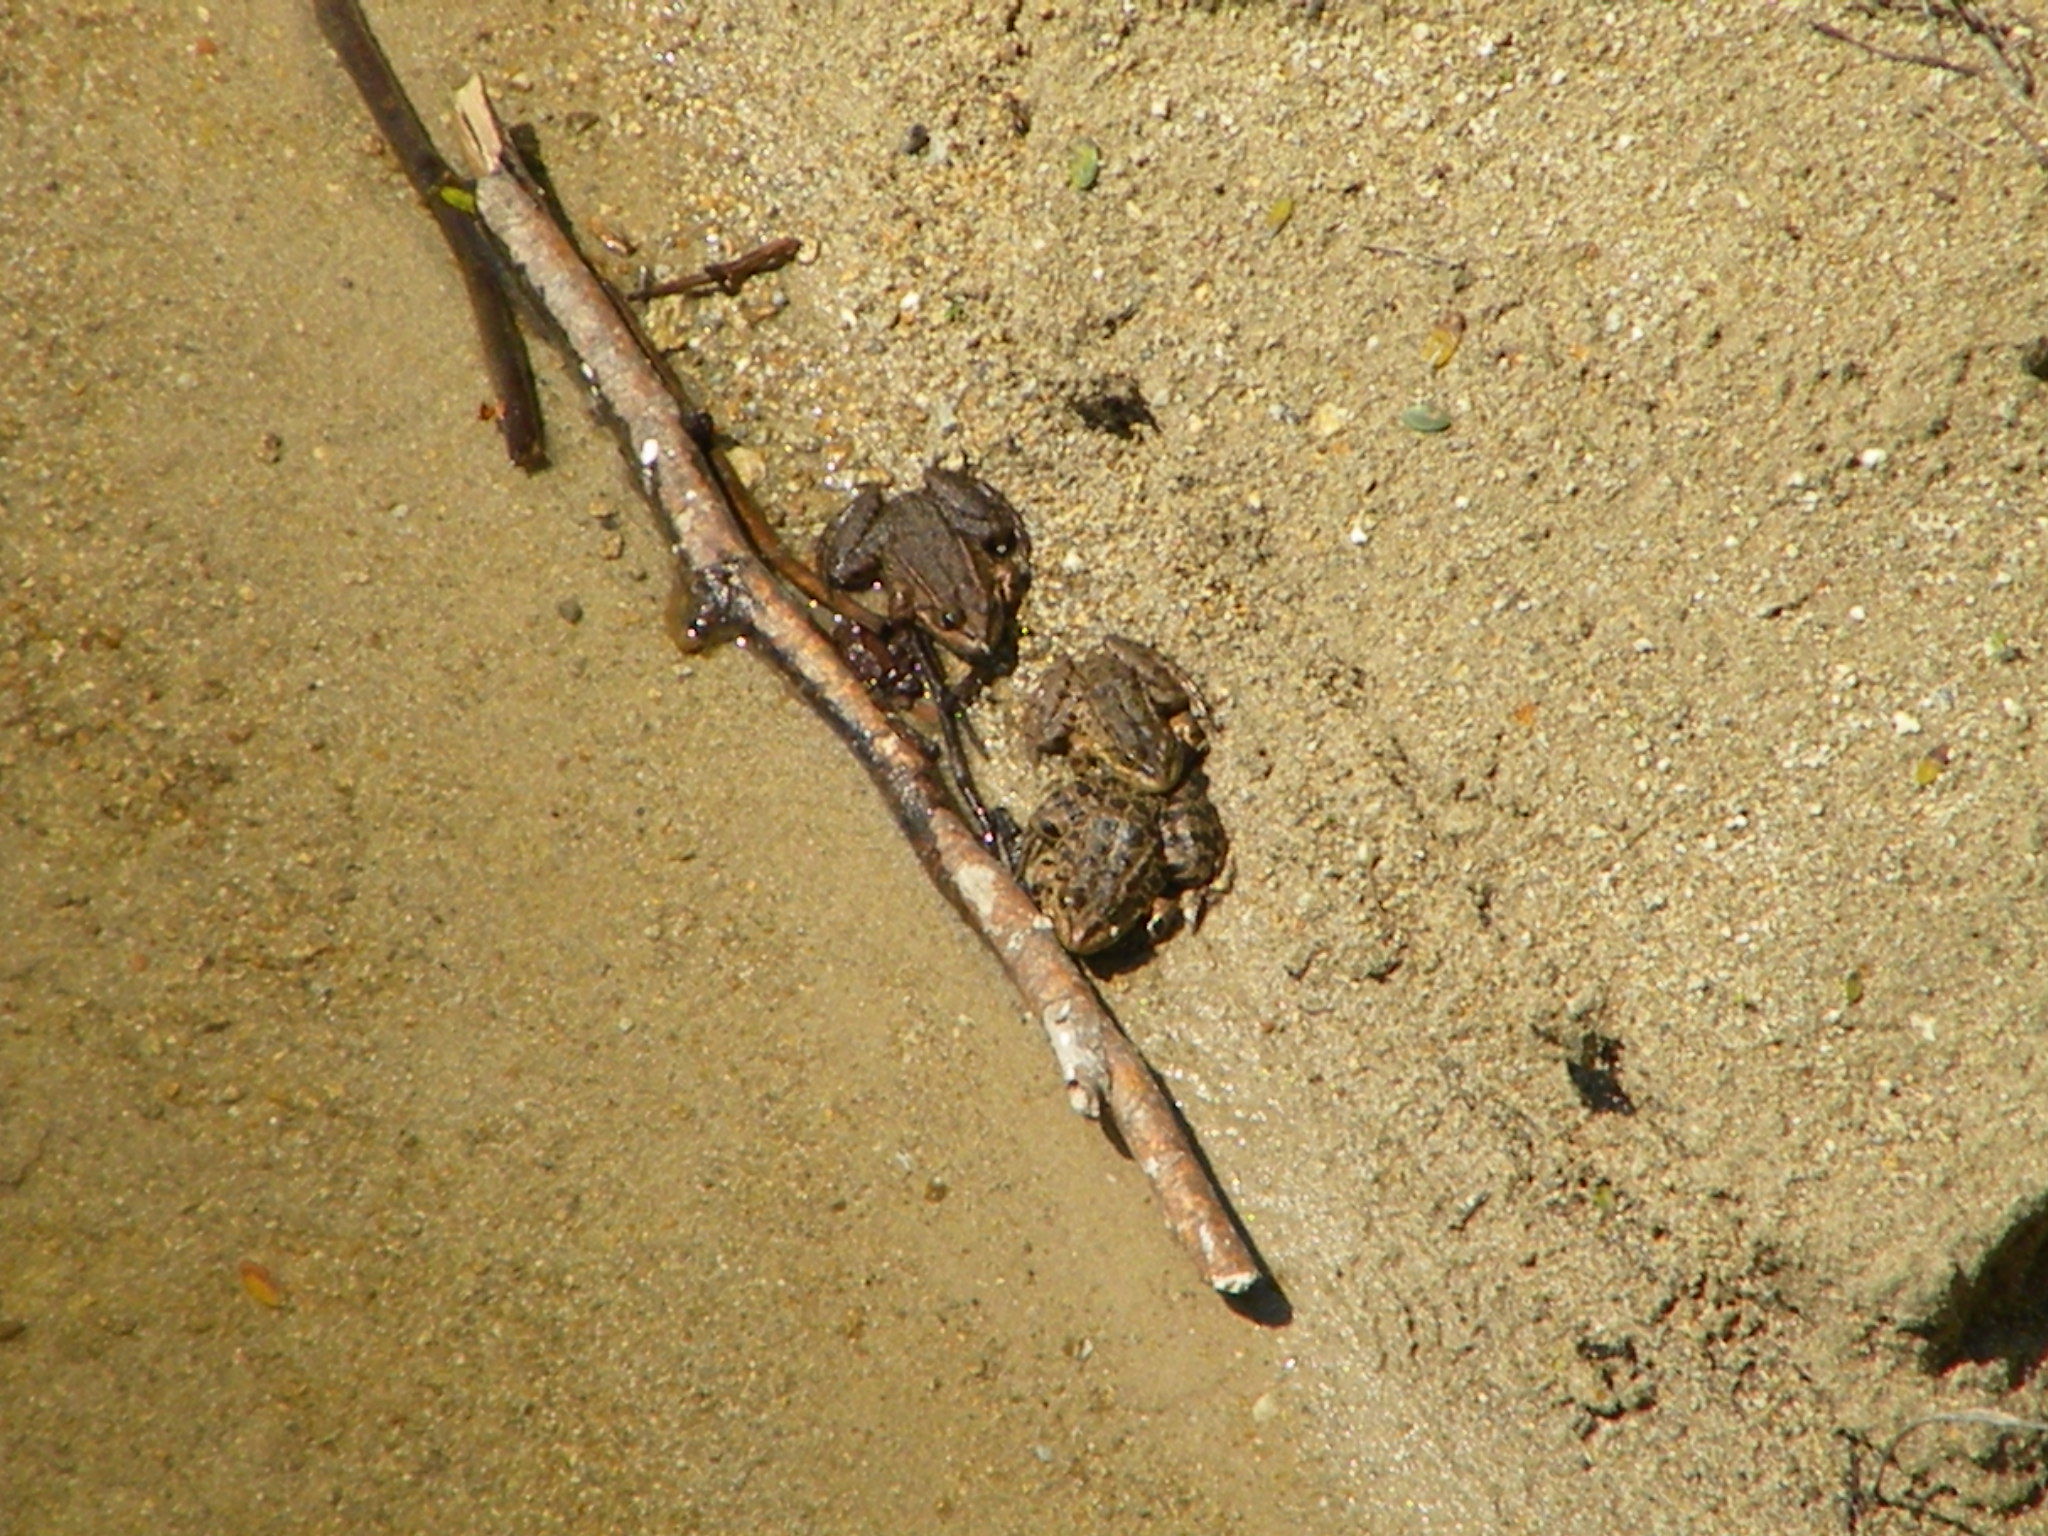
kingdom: Animalia
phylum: Chordata
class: Amphibia
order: Anura
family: Ranidae
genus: Pelophylax
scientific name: Pelophylax ridibundus
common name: Marsh frog
